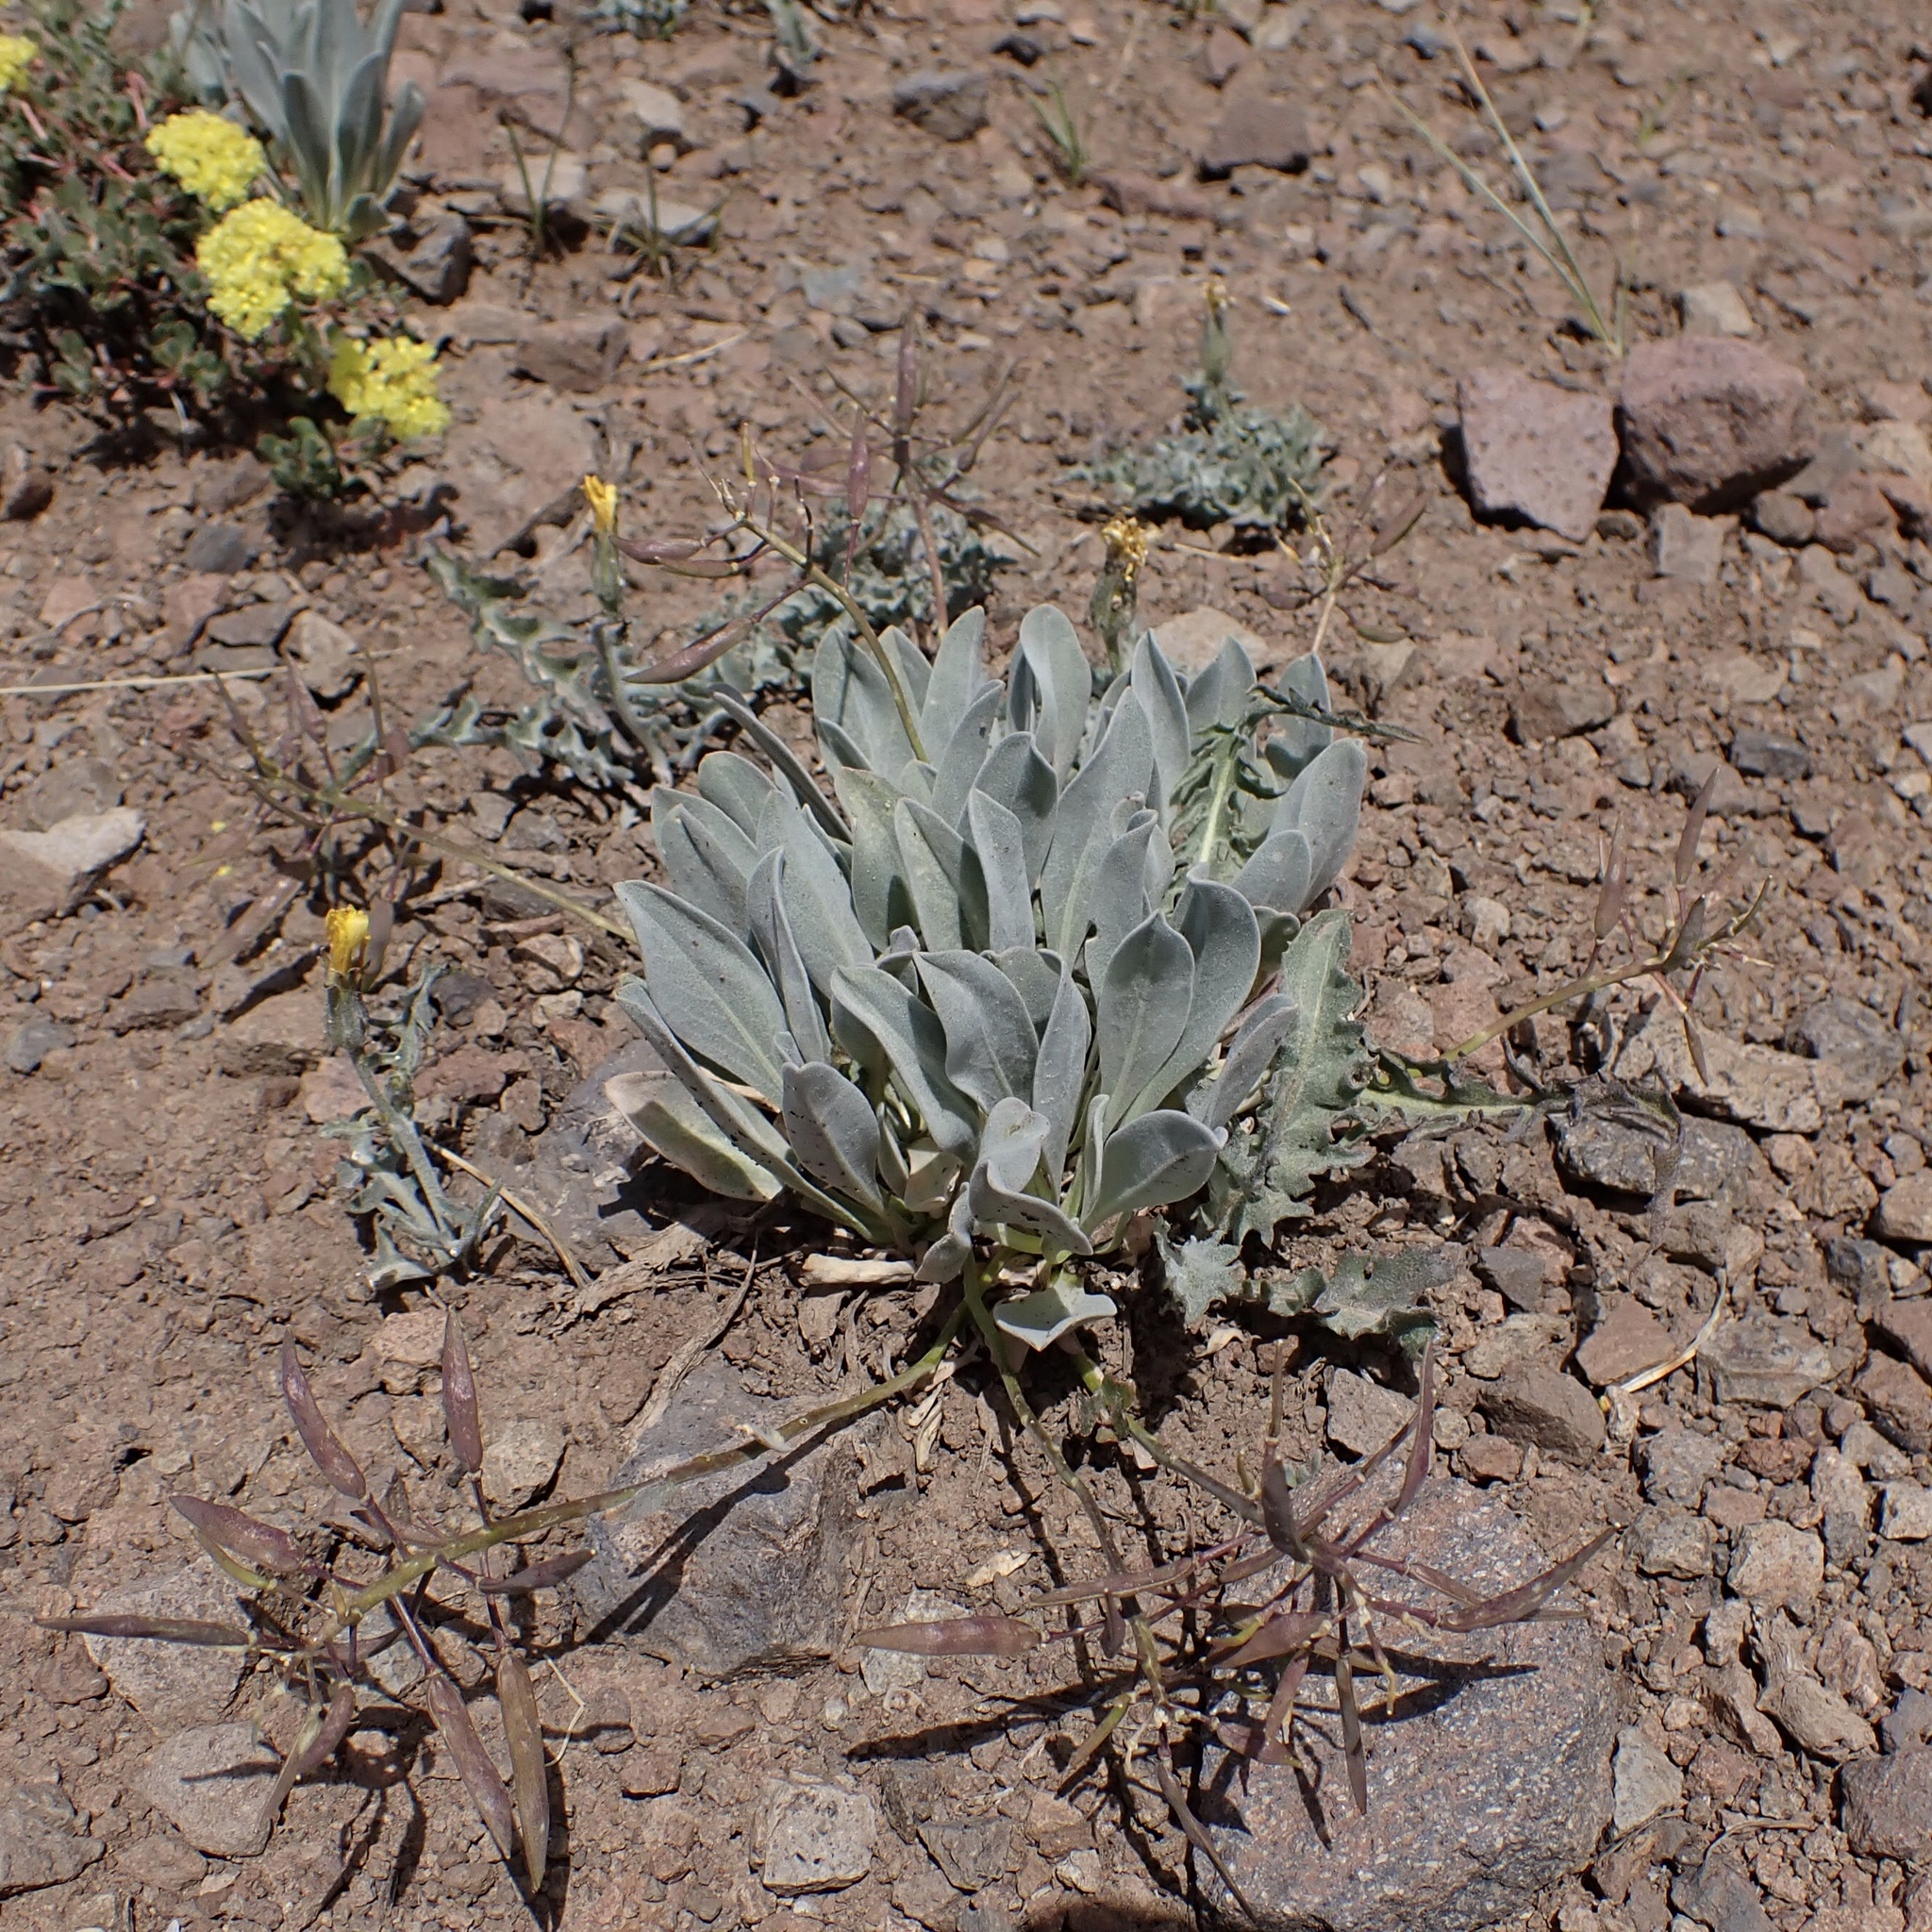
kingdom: Plantae
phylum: Tracheophyta
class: Magnoliopsida
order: Brassicales
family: Brassicaceae
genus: Phoenicaulis
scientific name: Phoenicaulis cheiranthoides
